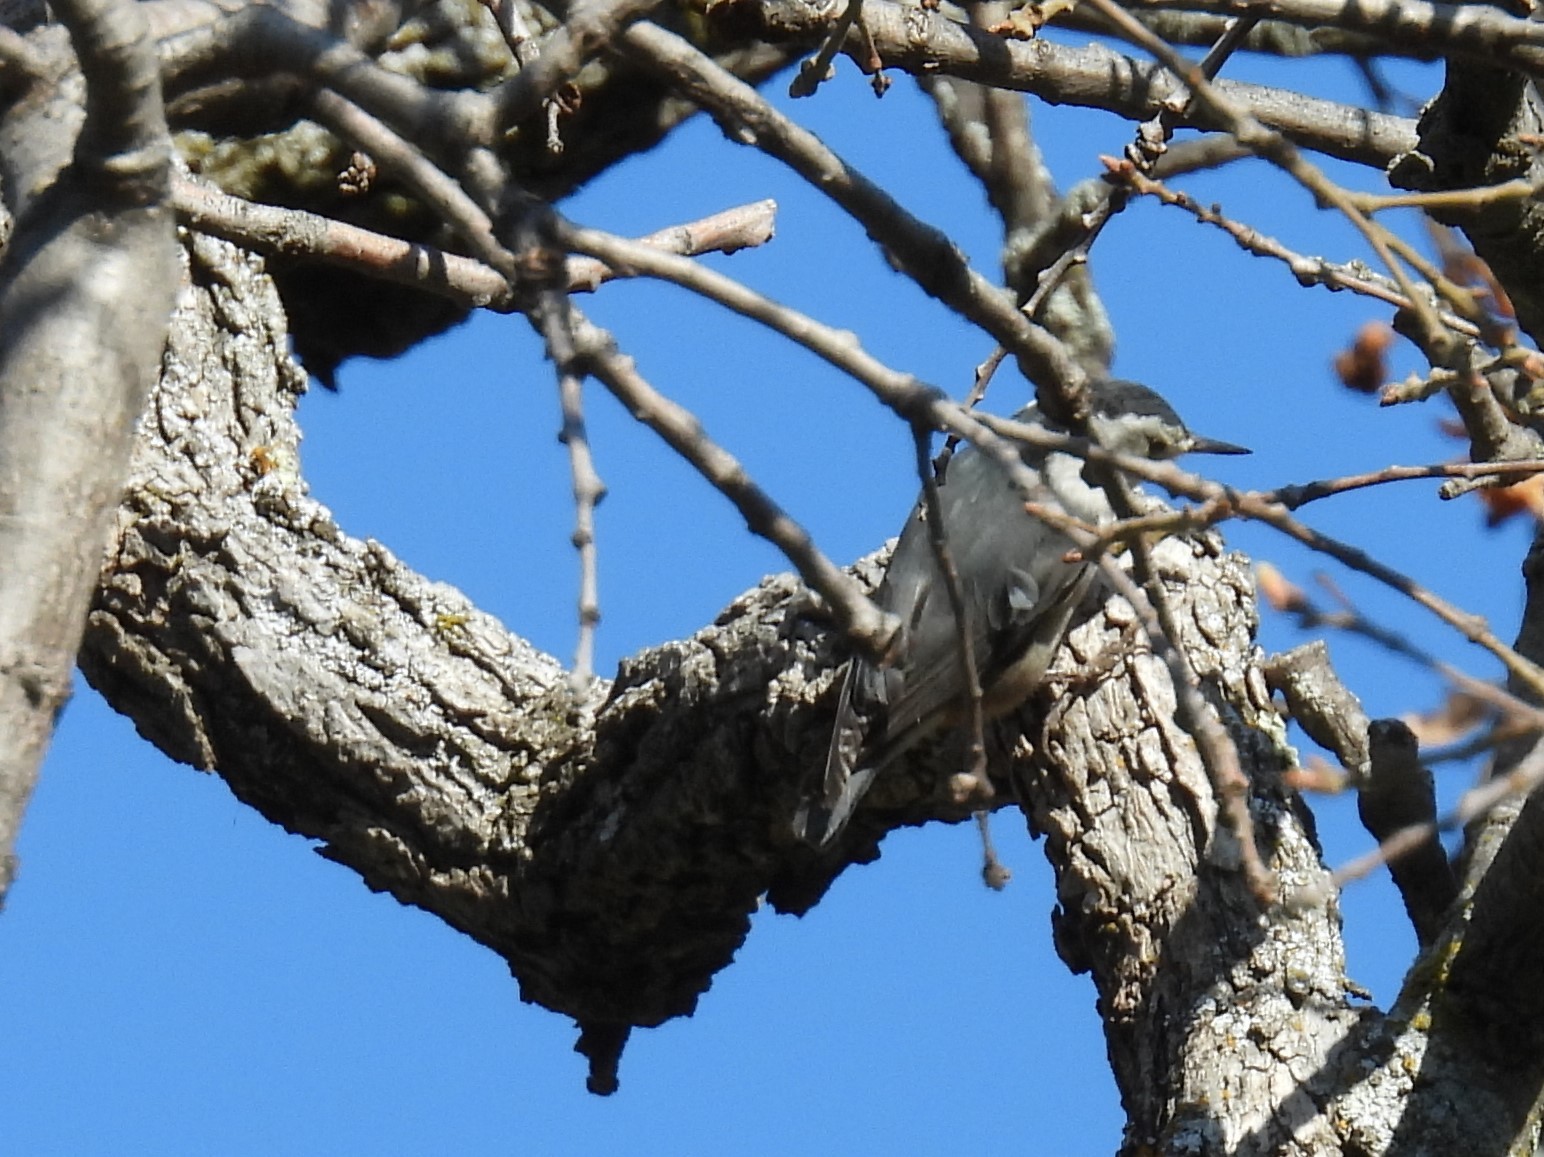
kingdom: Animalia
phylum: Chordata
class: Aves
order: Passeriformes
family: Sittidae
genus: Sitta
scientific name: Sitta carolinensis
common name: White-breasted nuthatch
